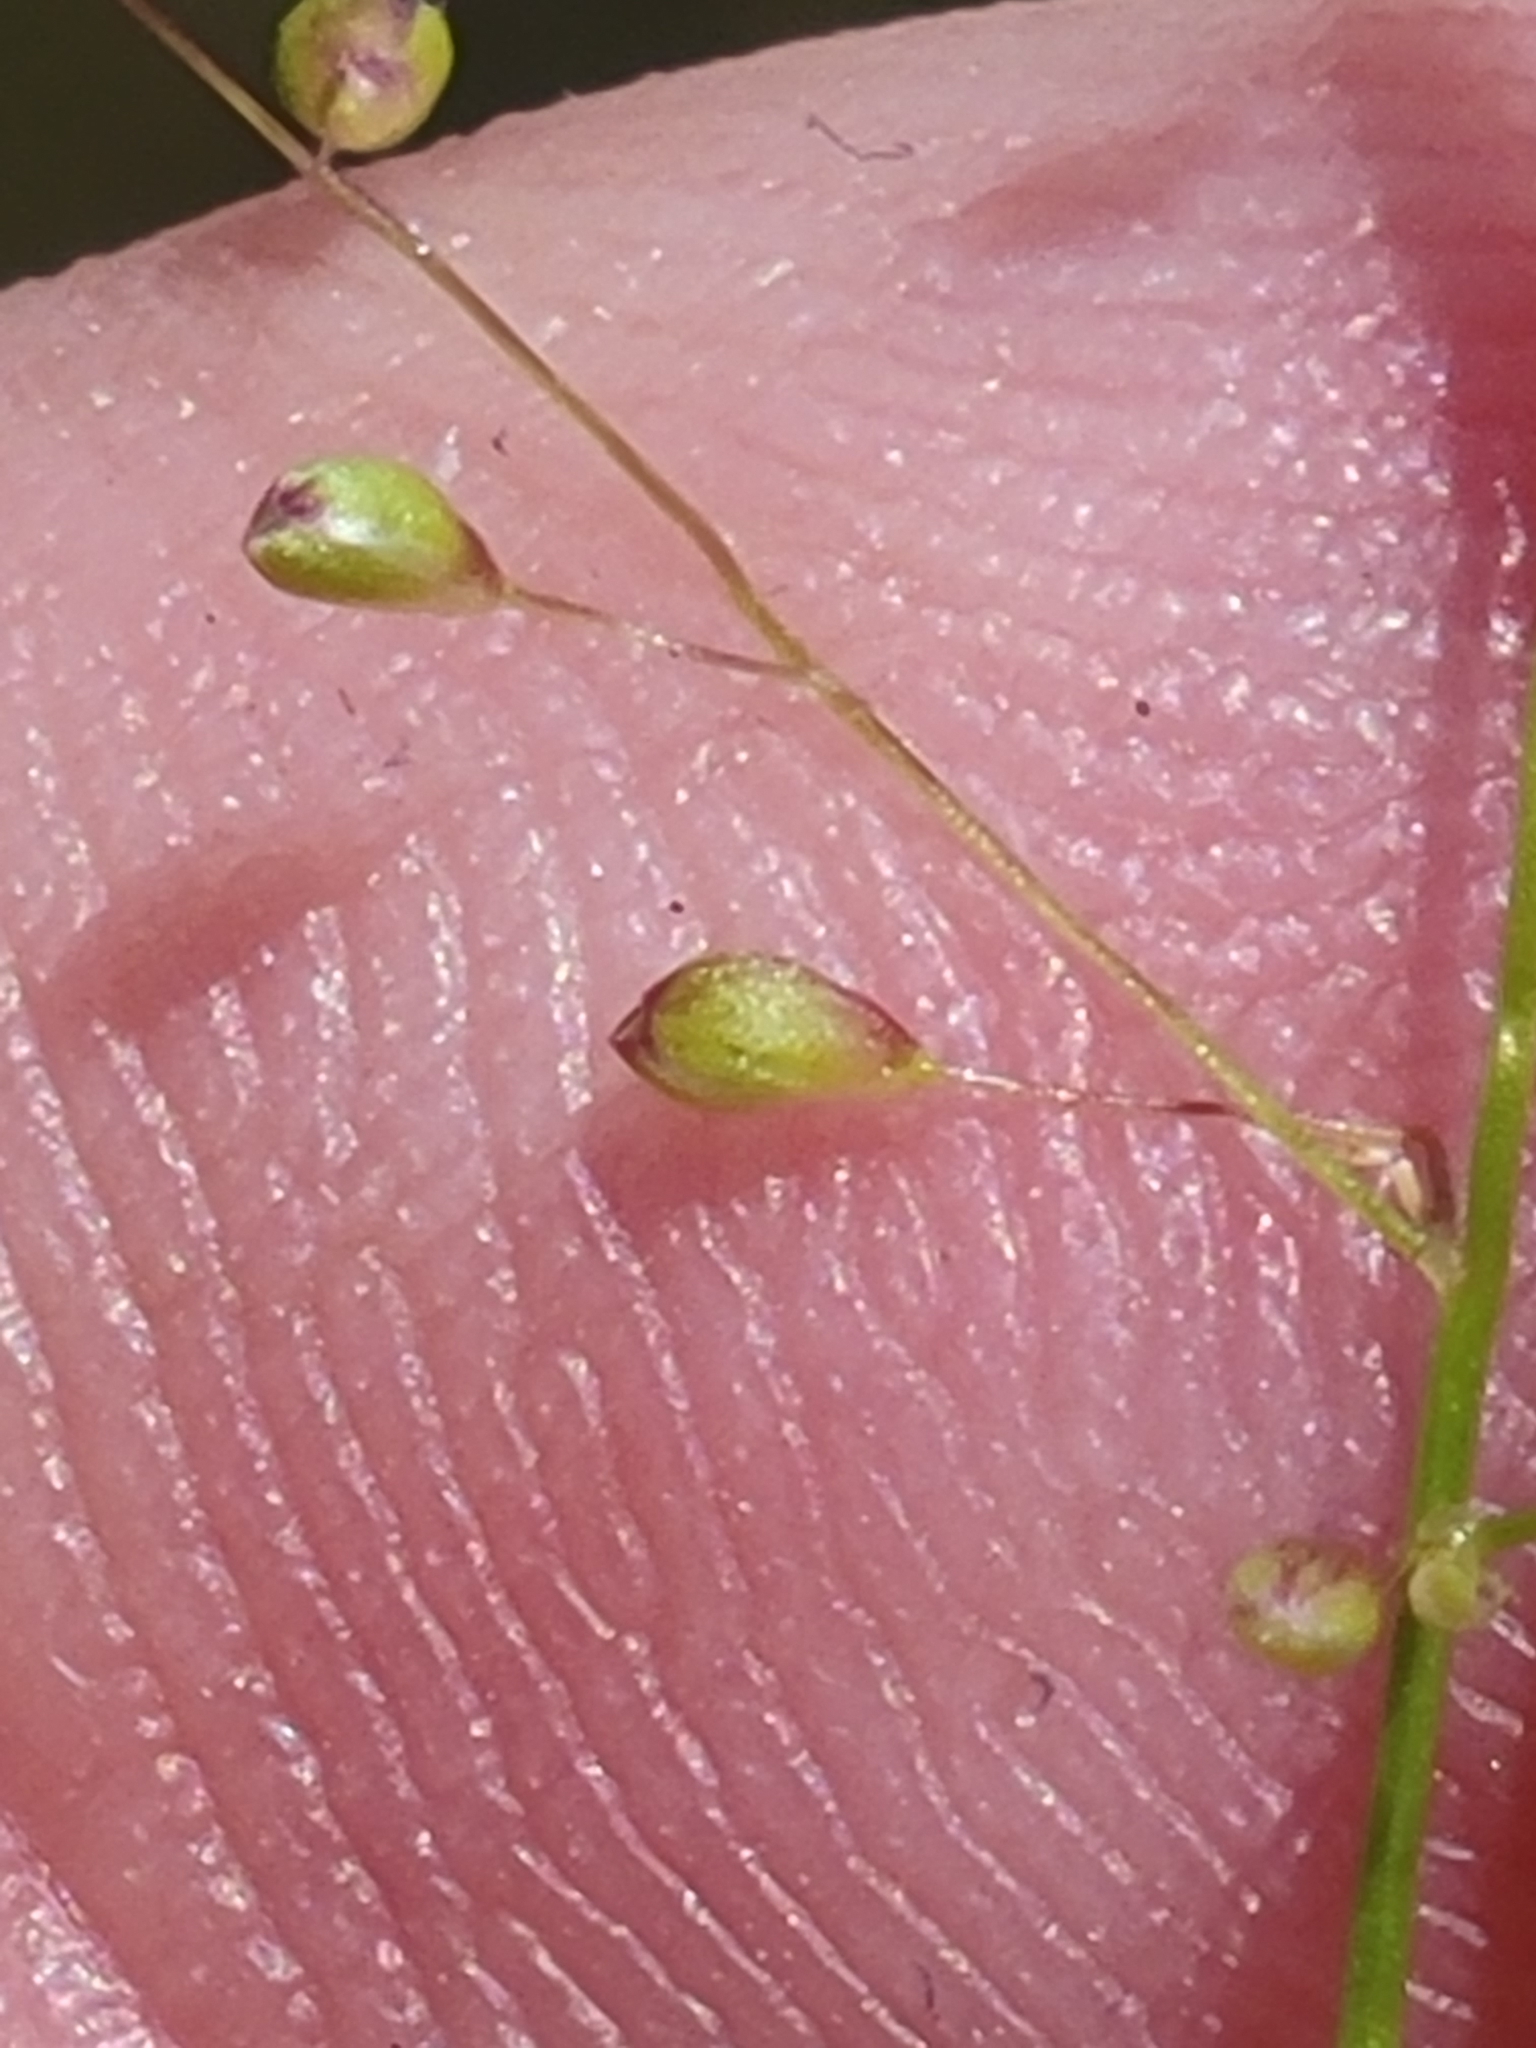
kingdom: Plantae
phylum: Tracheophyta
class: Liliopsida
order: Poales
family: Poaceae
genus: Dichanthelium
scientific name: Dichanthelium caerulescens
